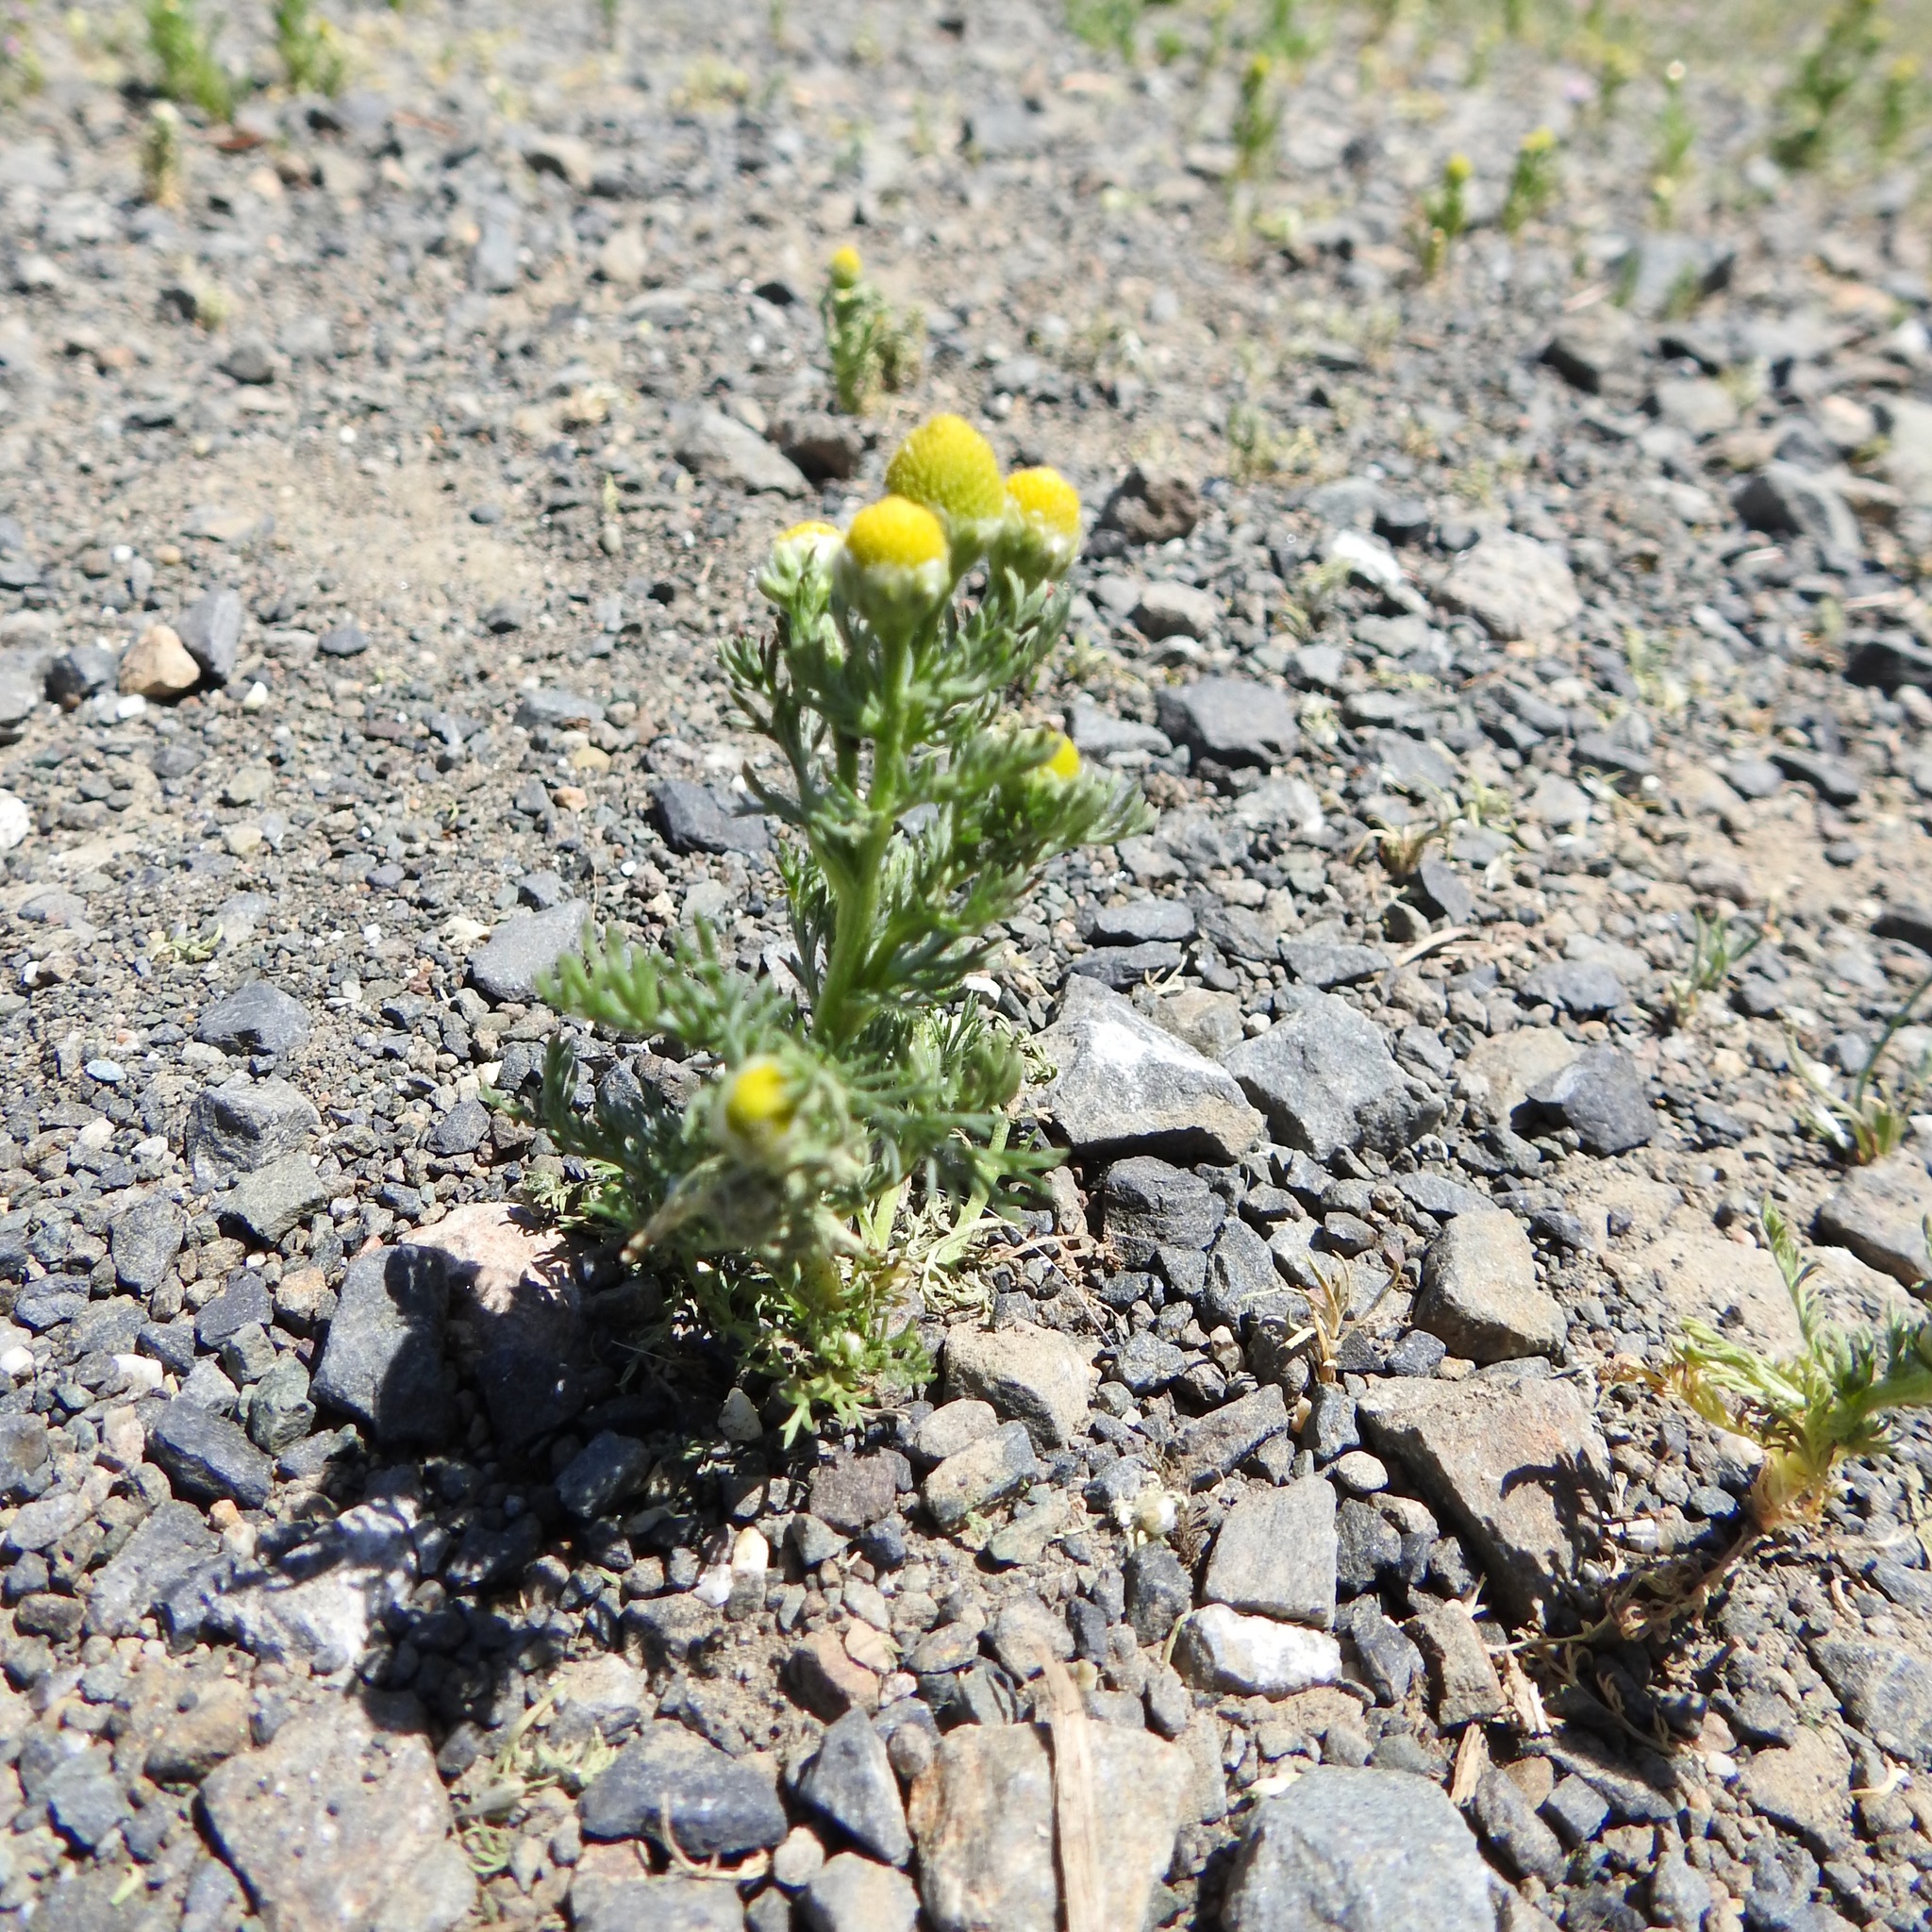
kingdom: Plantae
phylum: Tracheophyta
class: Magnoliopsida
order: Asterales
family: Asteraceae
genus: Matricaria
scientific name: Matricaria discoidea
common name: Disc mayweed
